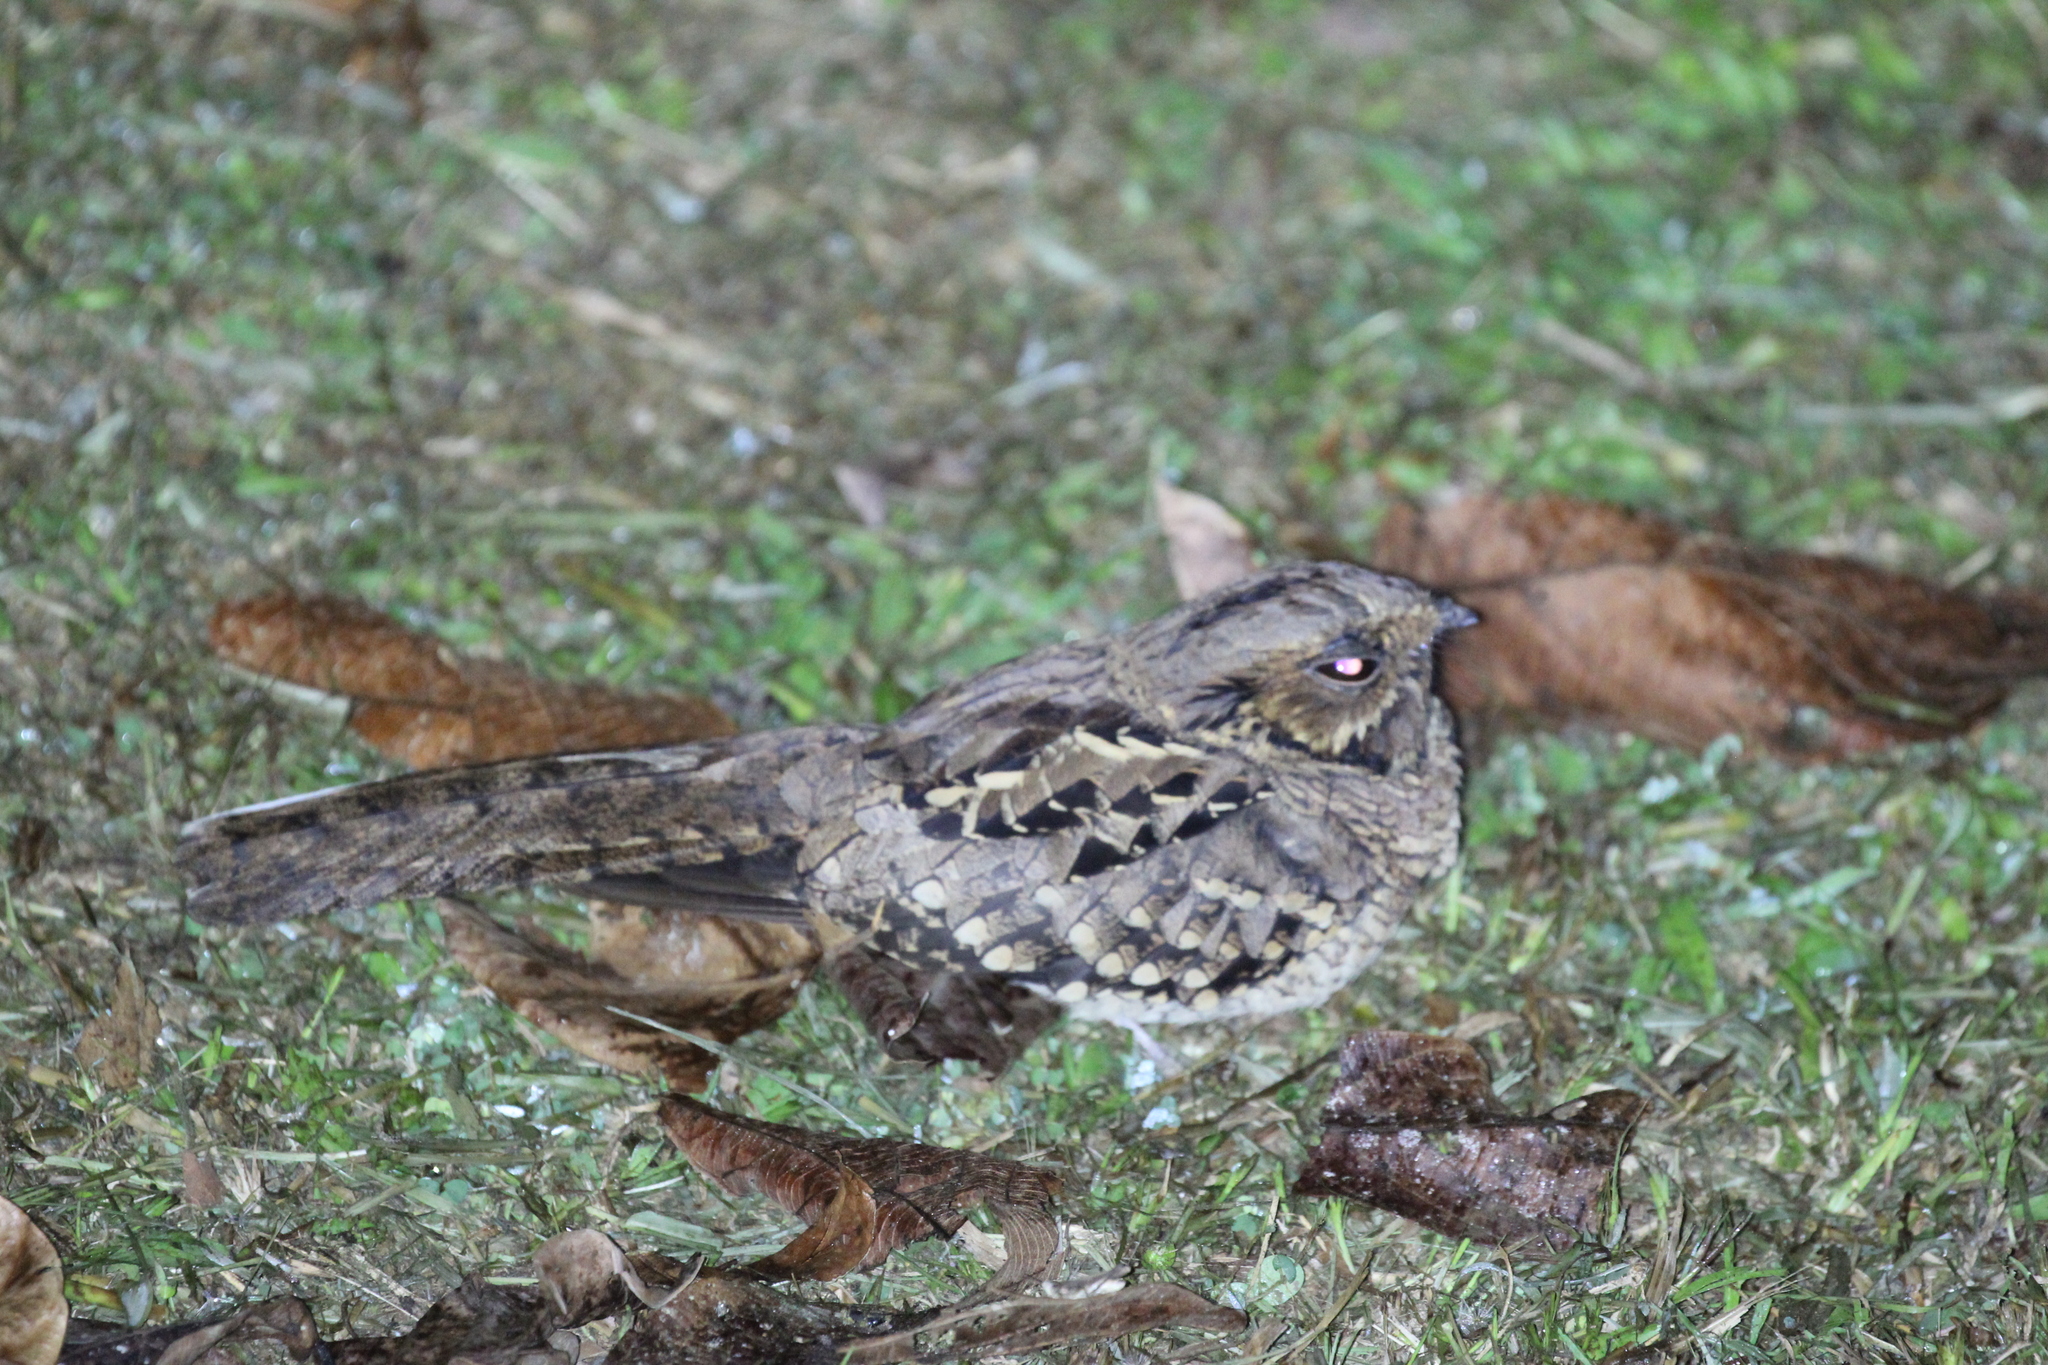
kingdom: Animalia
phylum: Chordata
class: Aves
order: Caprimulgiformes
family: Caprimulgidae
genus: Nyctidromus
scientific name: Nyctidromus albicollis
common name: Pauraque
